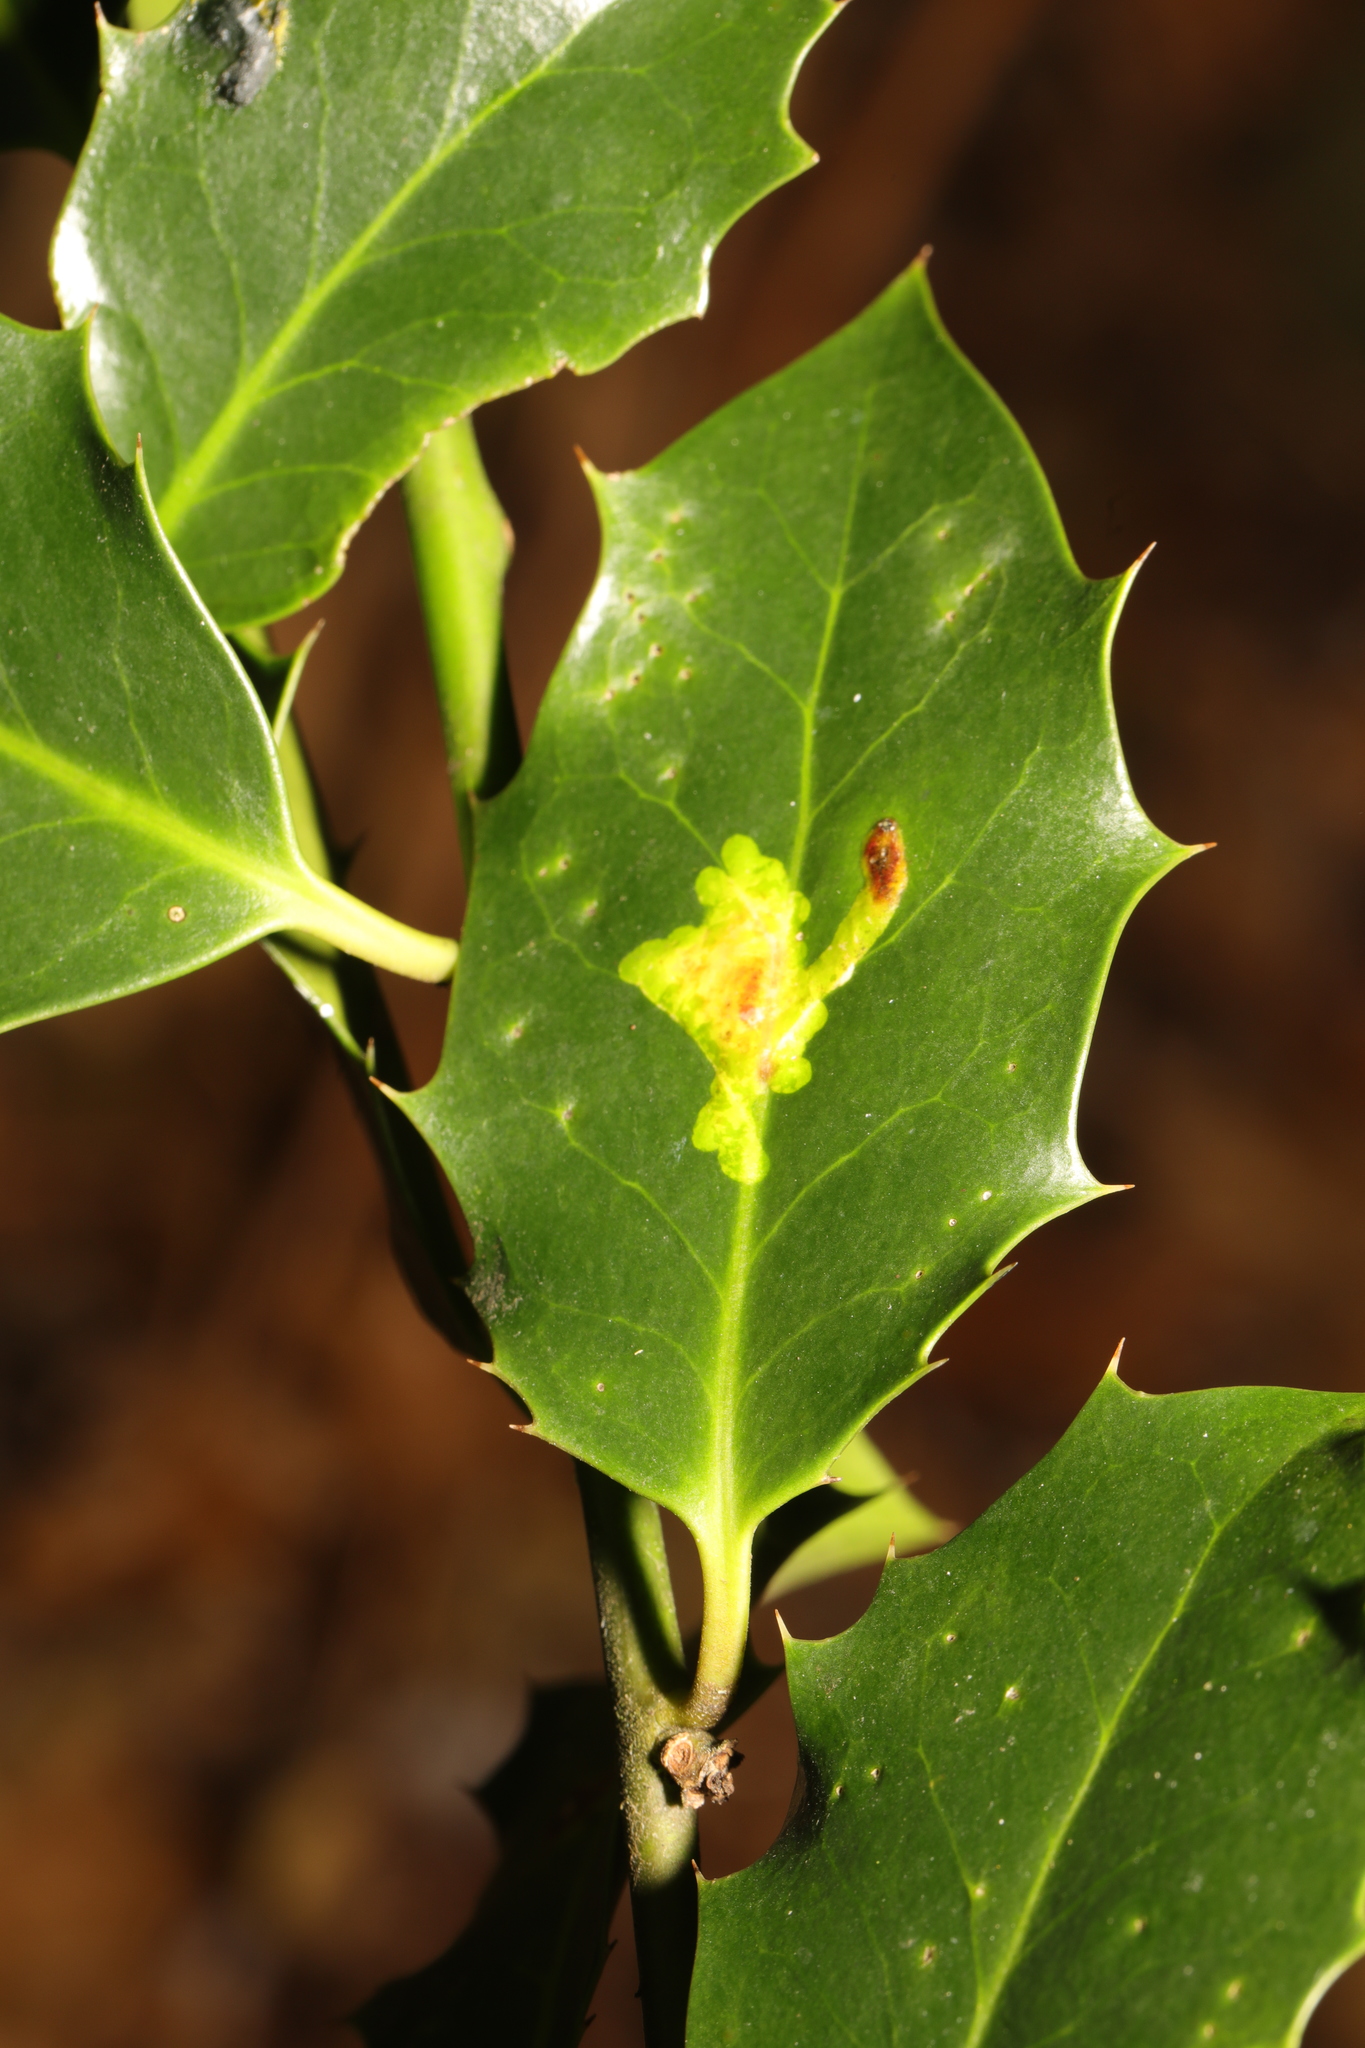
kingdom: Animalia
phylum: Arthropoda
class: Insecta
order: Diptera
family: Agromyzidae
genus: Phytomyza
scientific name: Phytomyza ilicis
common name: Holly leafminer
